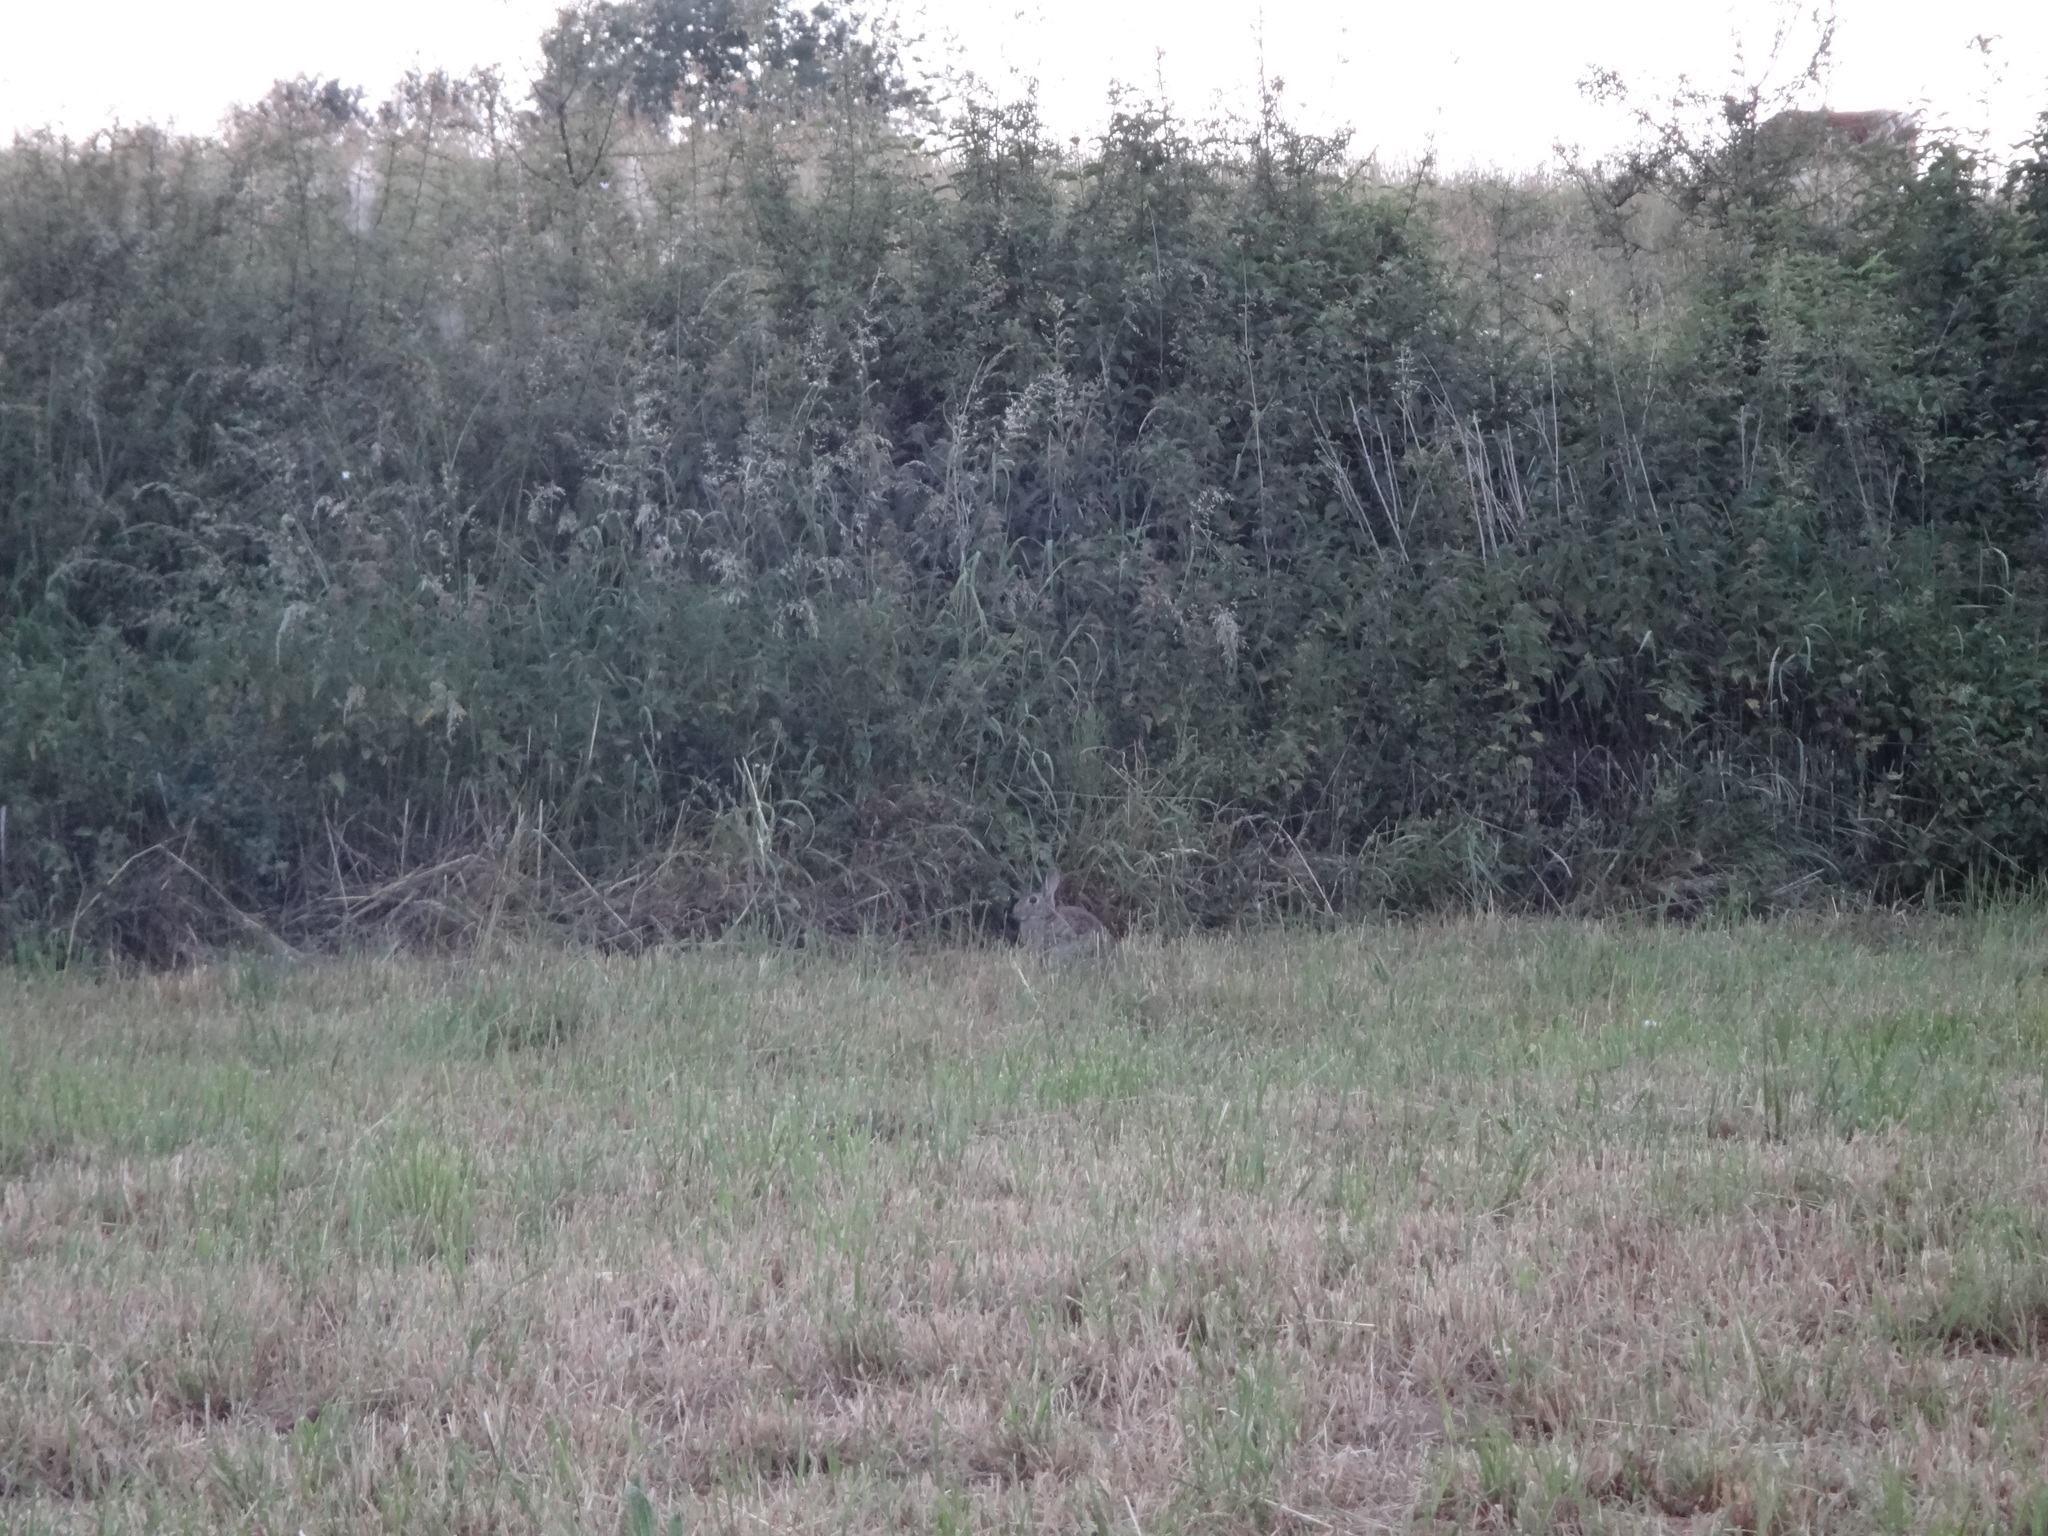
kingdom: Animalia
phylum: Chordata
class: Mammalia
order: Lagomorpha
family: Leporidae
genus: Oryctolagus
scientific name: Oryctolagus cuniculus
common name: European rabbit
